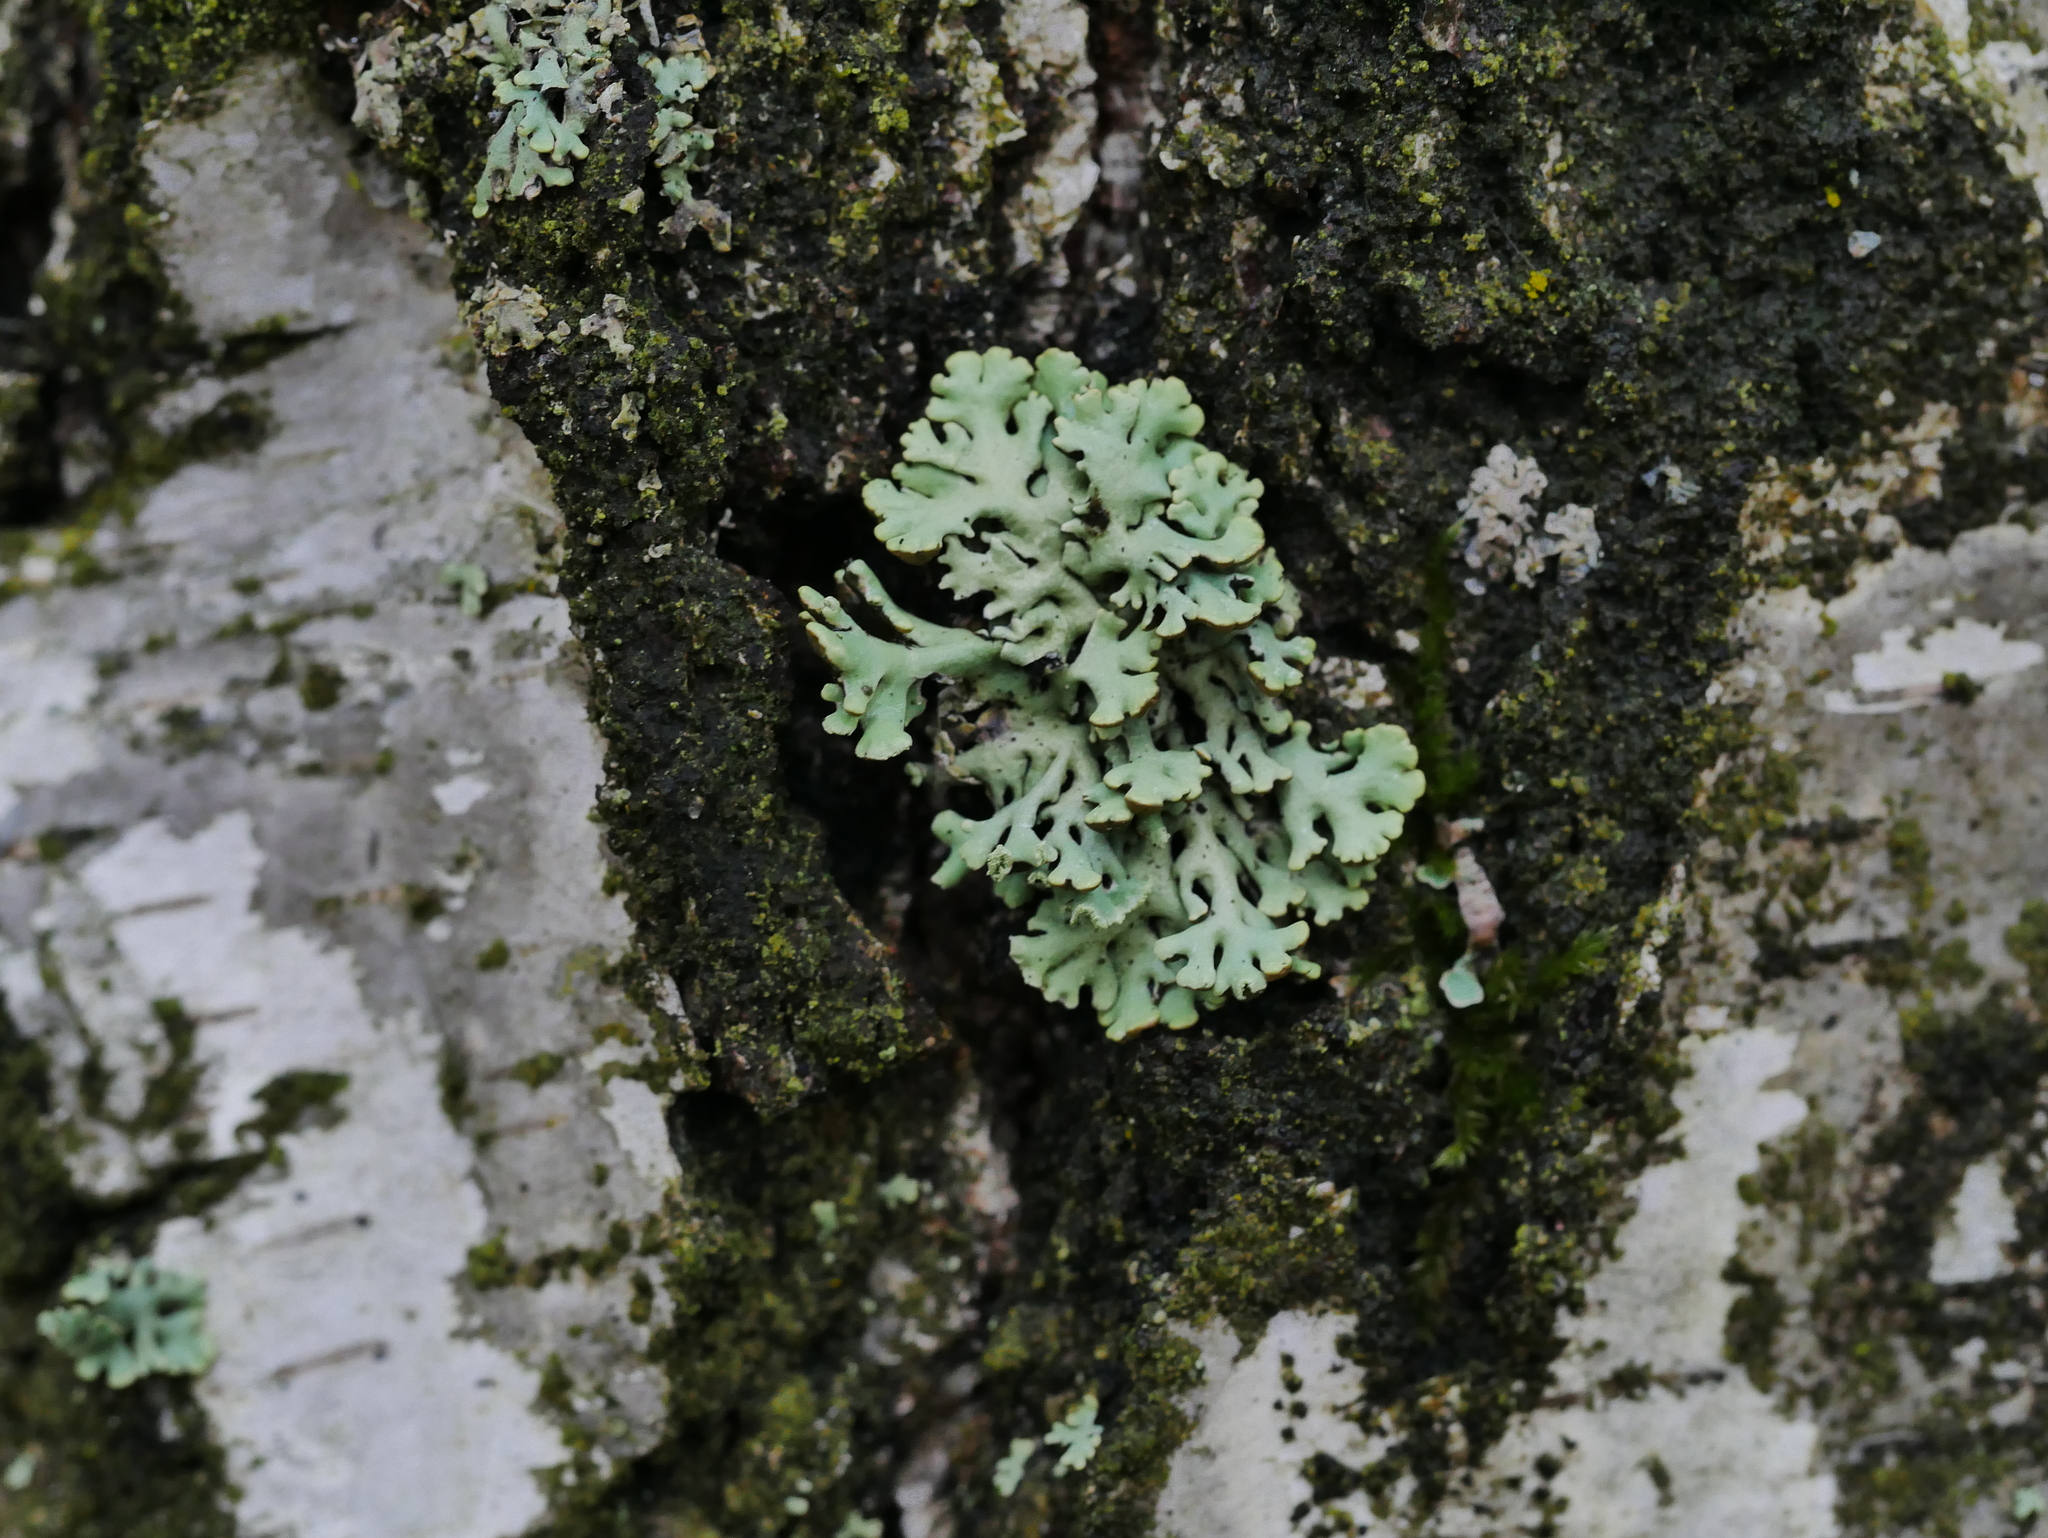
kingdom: Fungi
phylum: Ascomycota
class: Lecanoromycetes
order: Lecanorales
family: Parmeliaceae
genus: Hypogymnia
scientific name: Hypogymnia physodes
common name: Dark crottle
